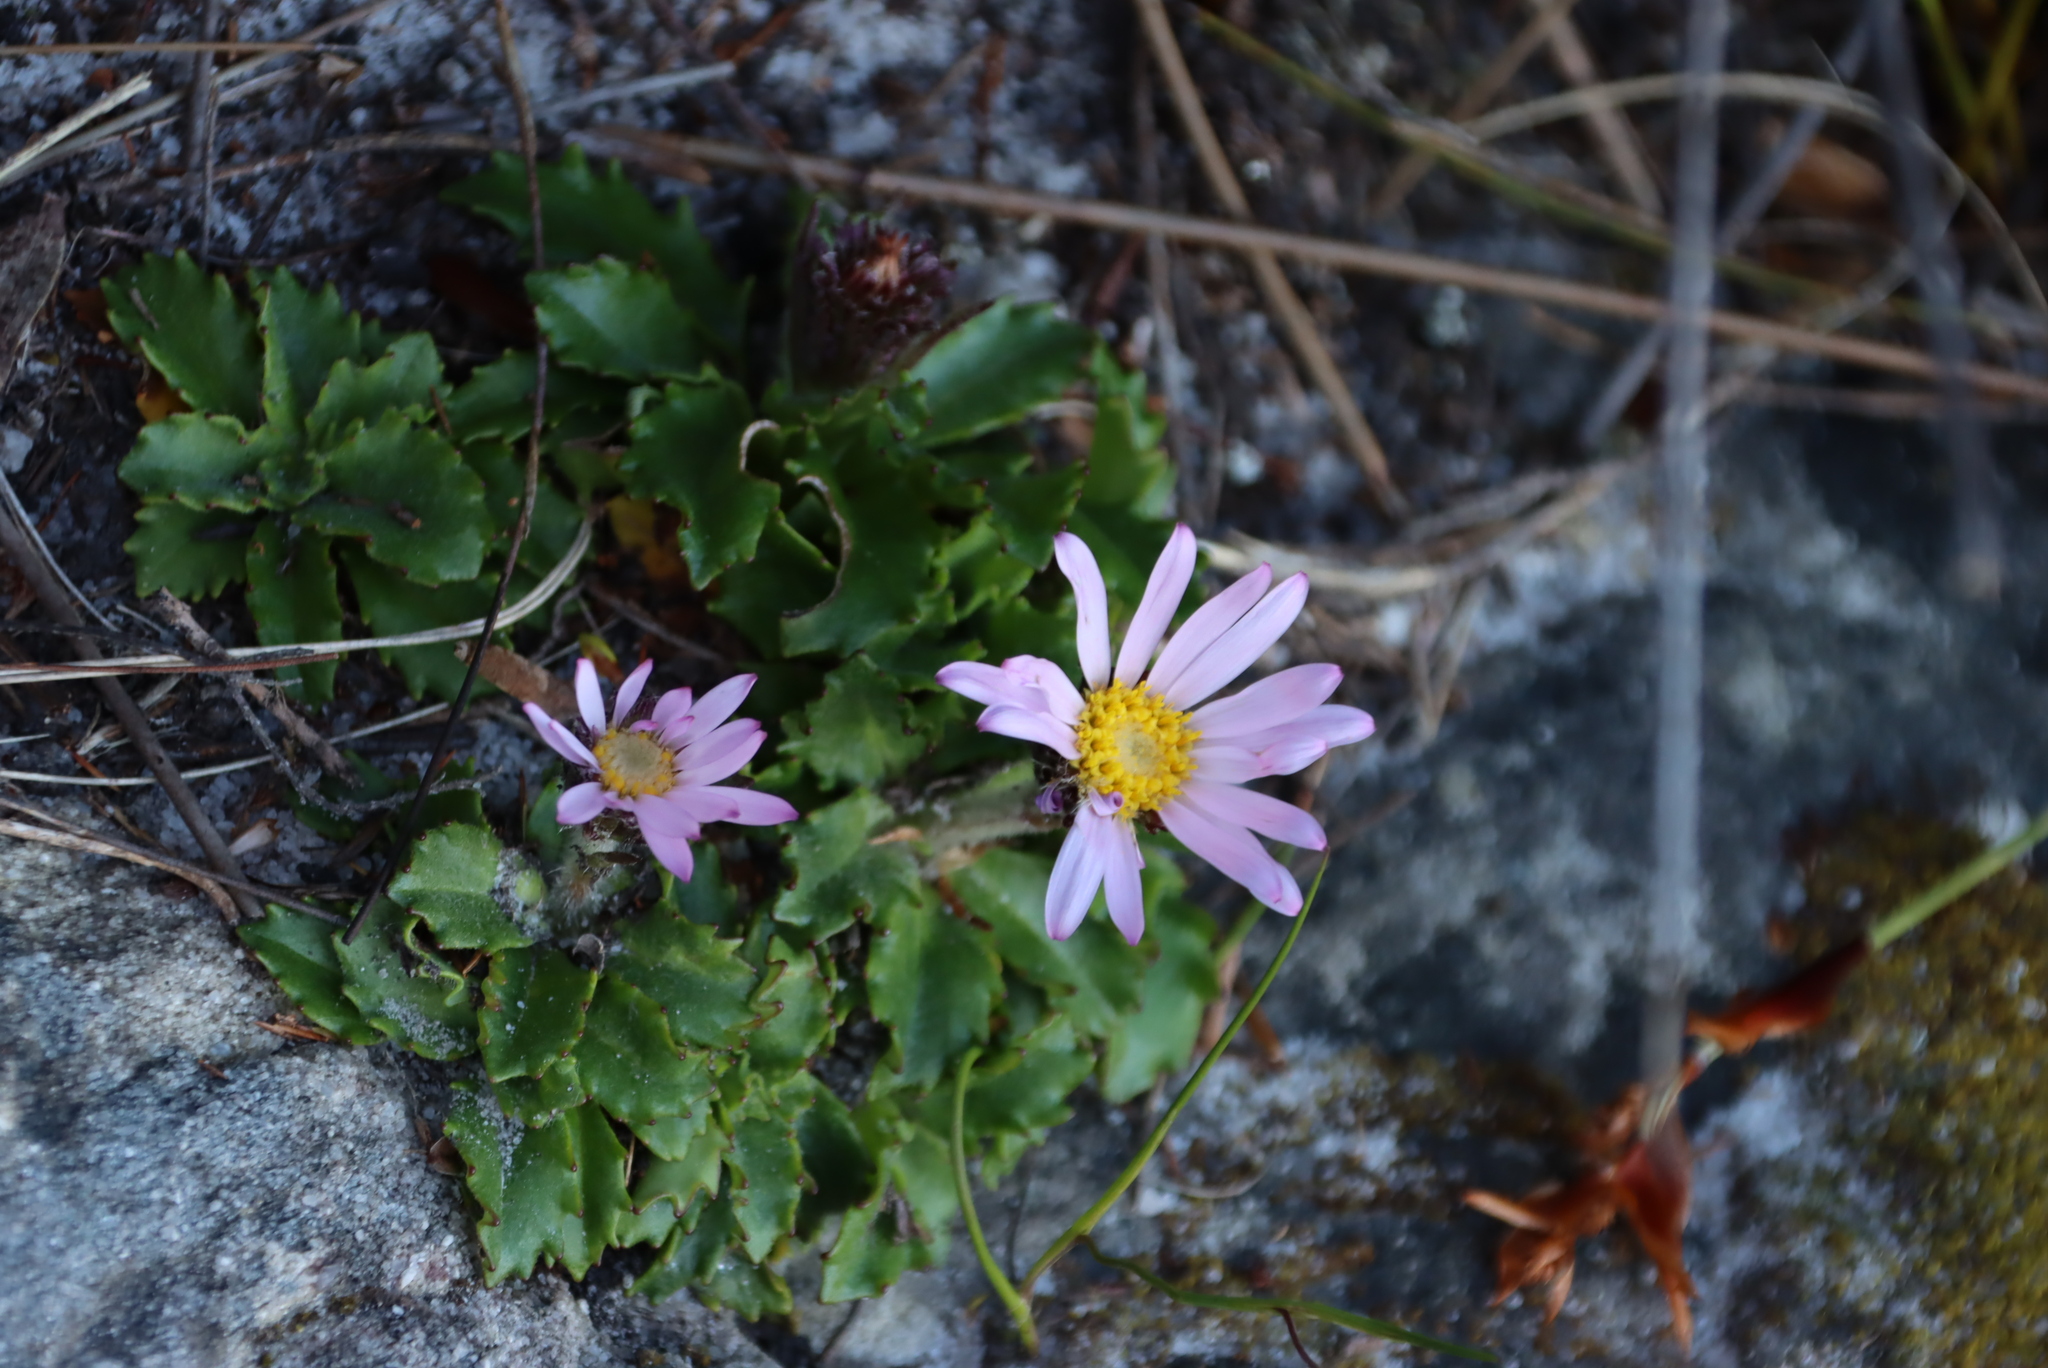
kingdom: Plantae
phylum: Tracheophyta
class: Magnoliopsida
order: Asterales
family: Asteraceae
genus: Zyrphelis
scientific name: Zyrphelis crenata
